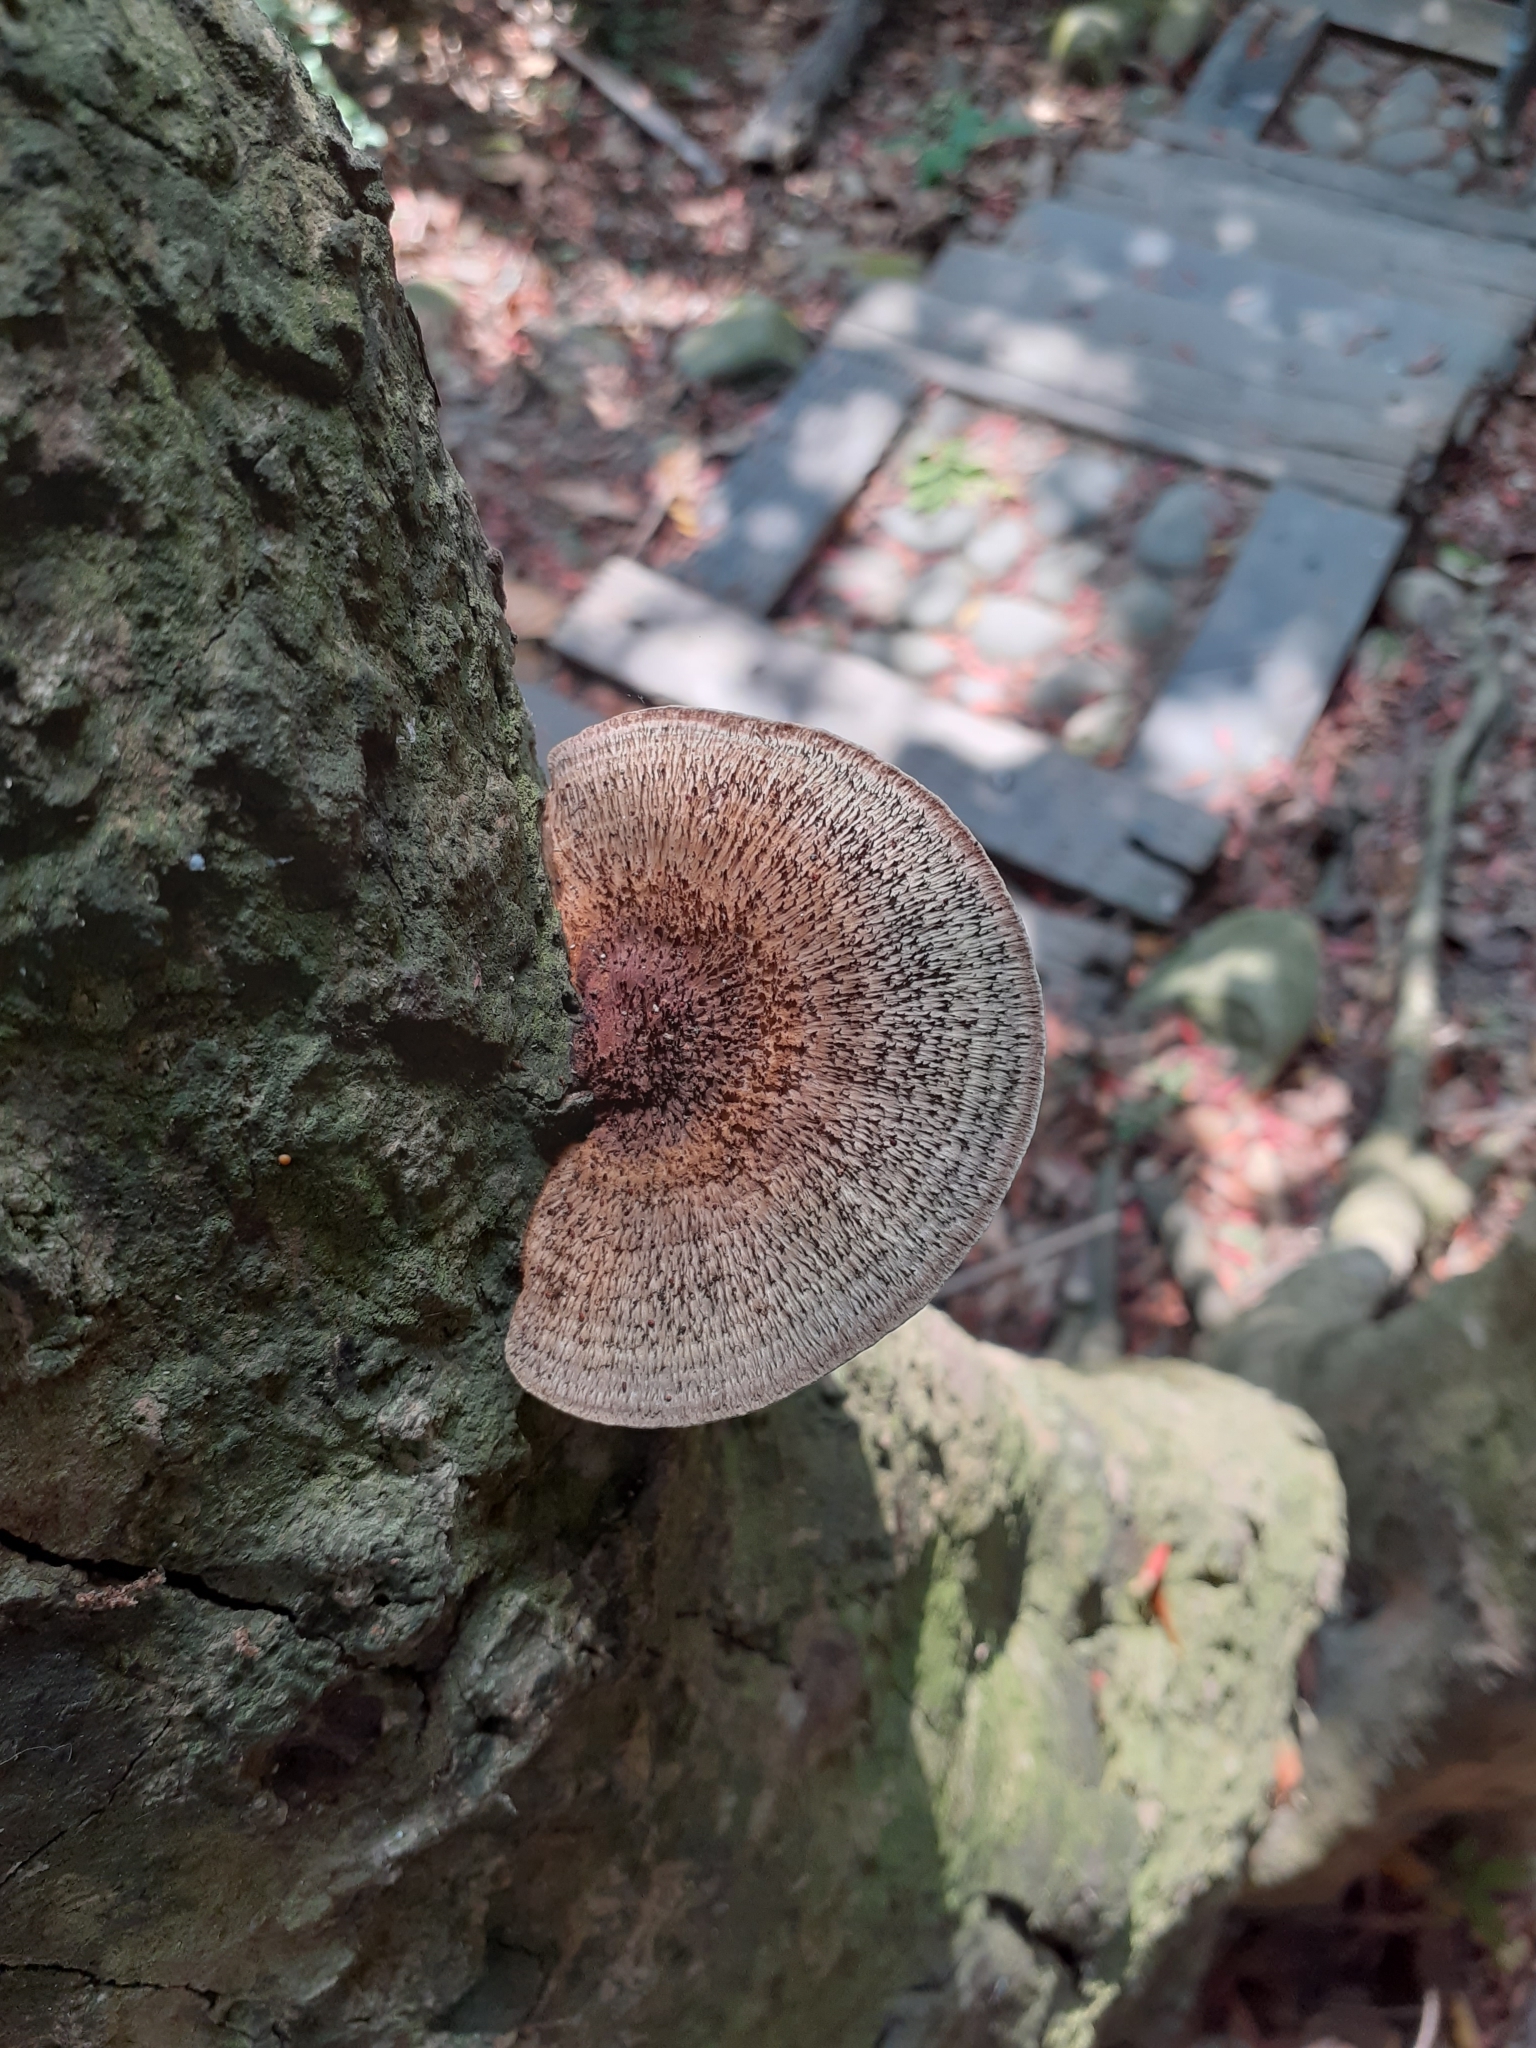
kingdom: Fungi
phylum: Basidiomycota
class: Agaricomycetes
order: Polyporales
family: Polyporaceae
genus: Hexagonia
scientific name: Hexagonia apiaria
